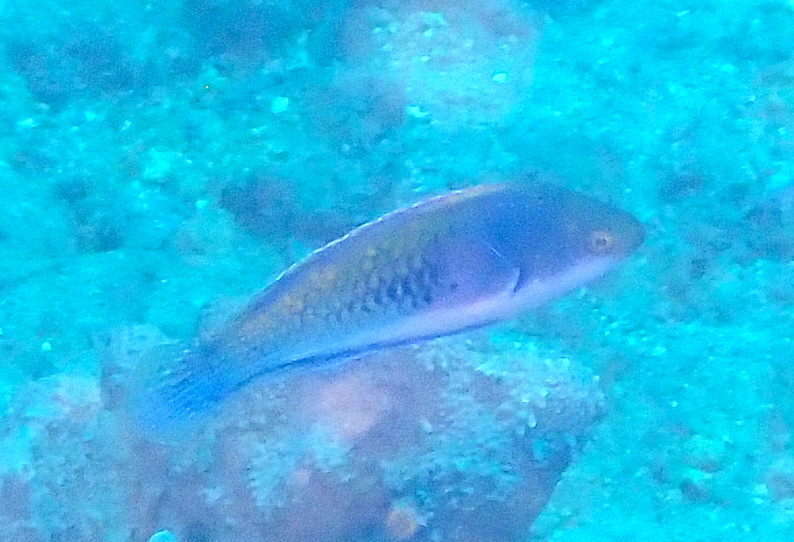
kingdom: Animalia
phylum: Chordata
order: Perciformes
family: Labridae
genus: Cirrhilabrus
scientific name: Cirrhilabrus cyanopleura
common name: Coralline wrasse
